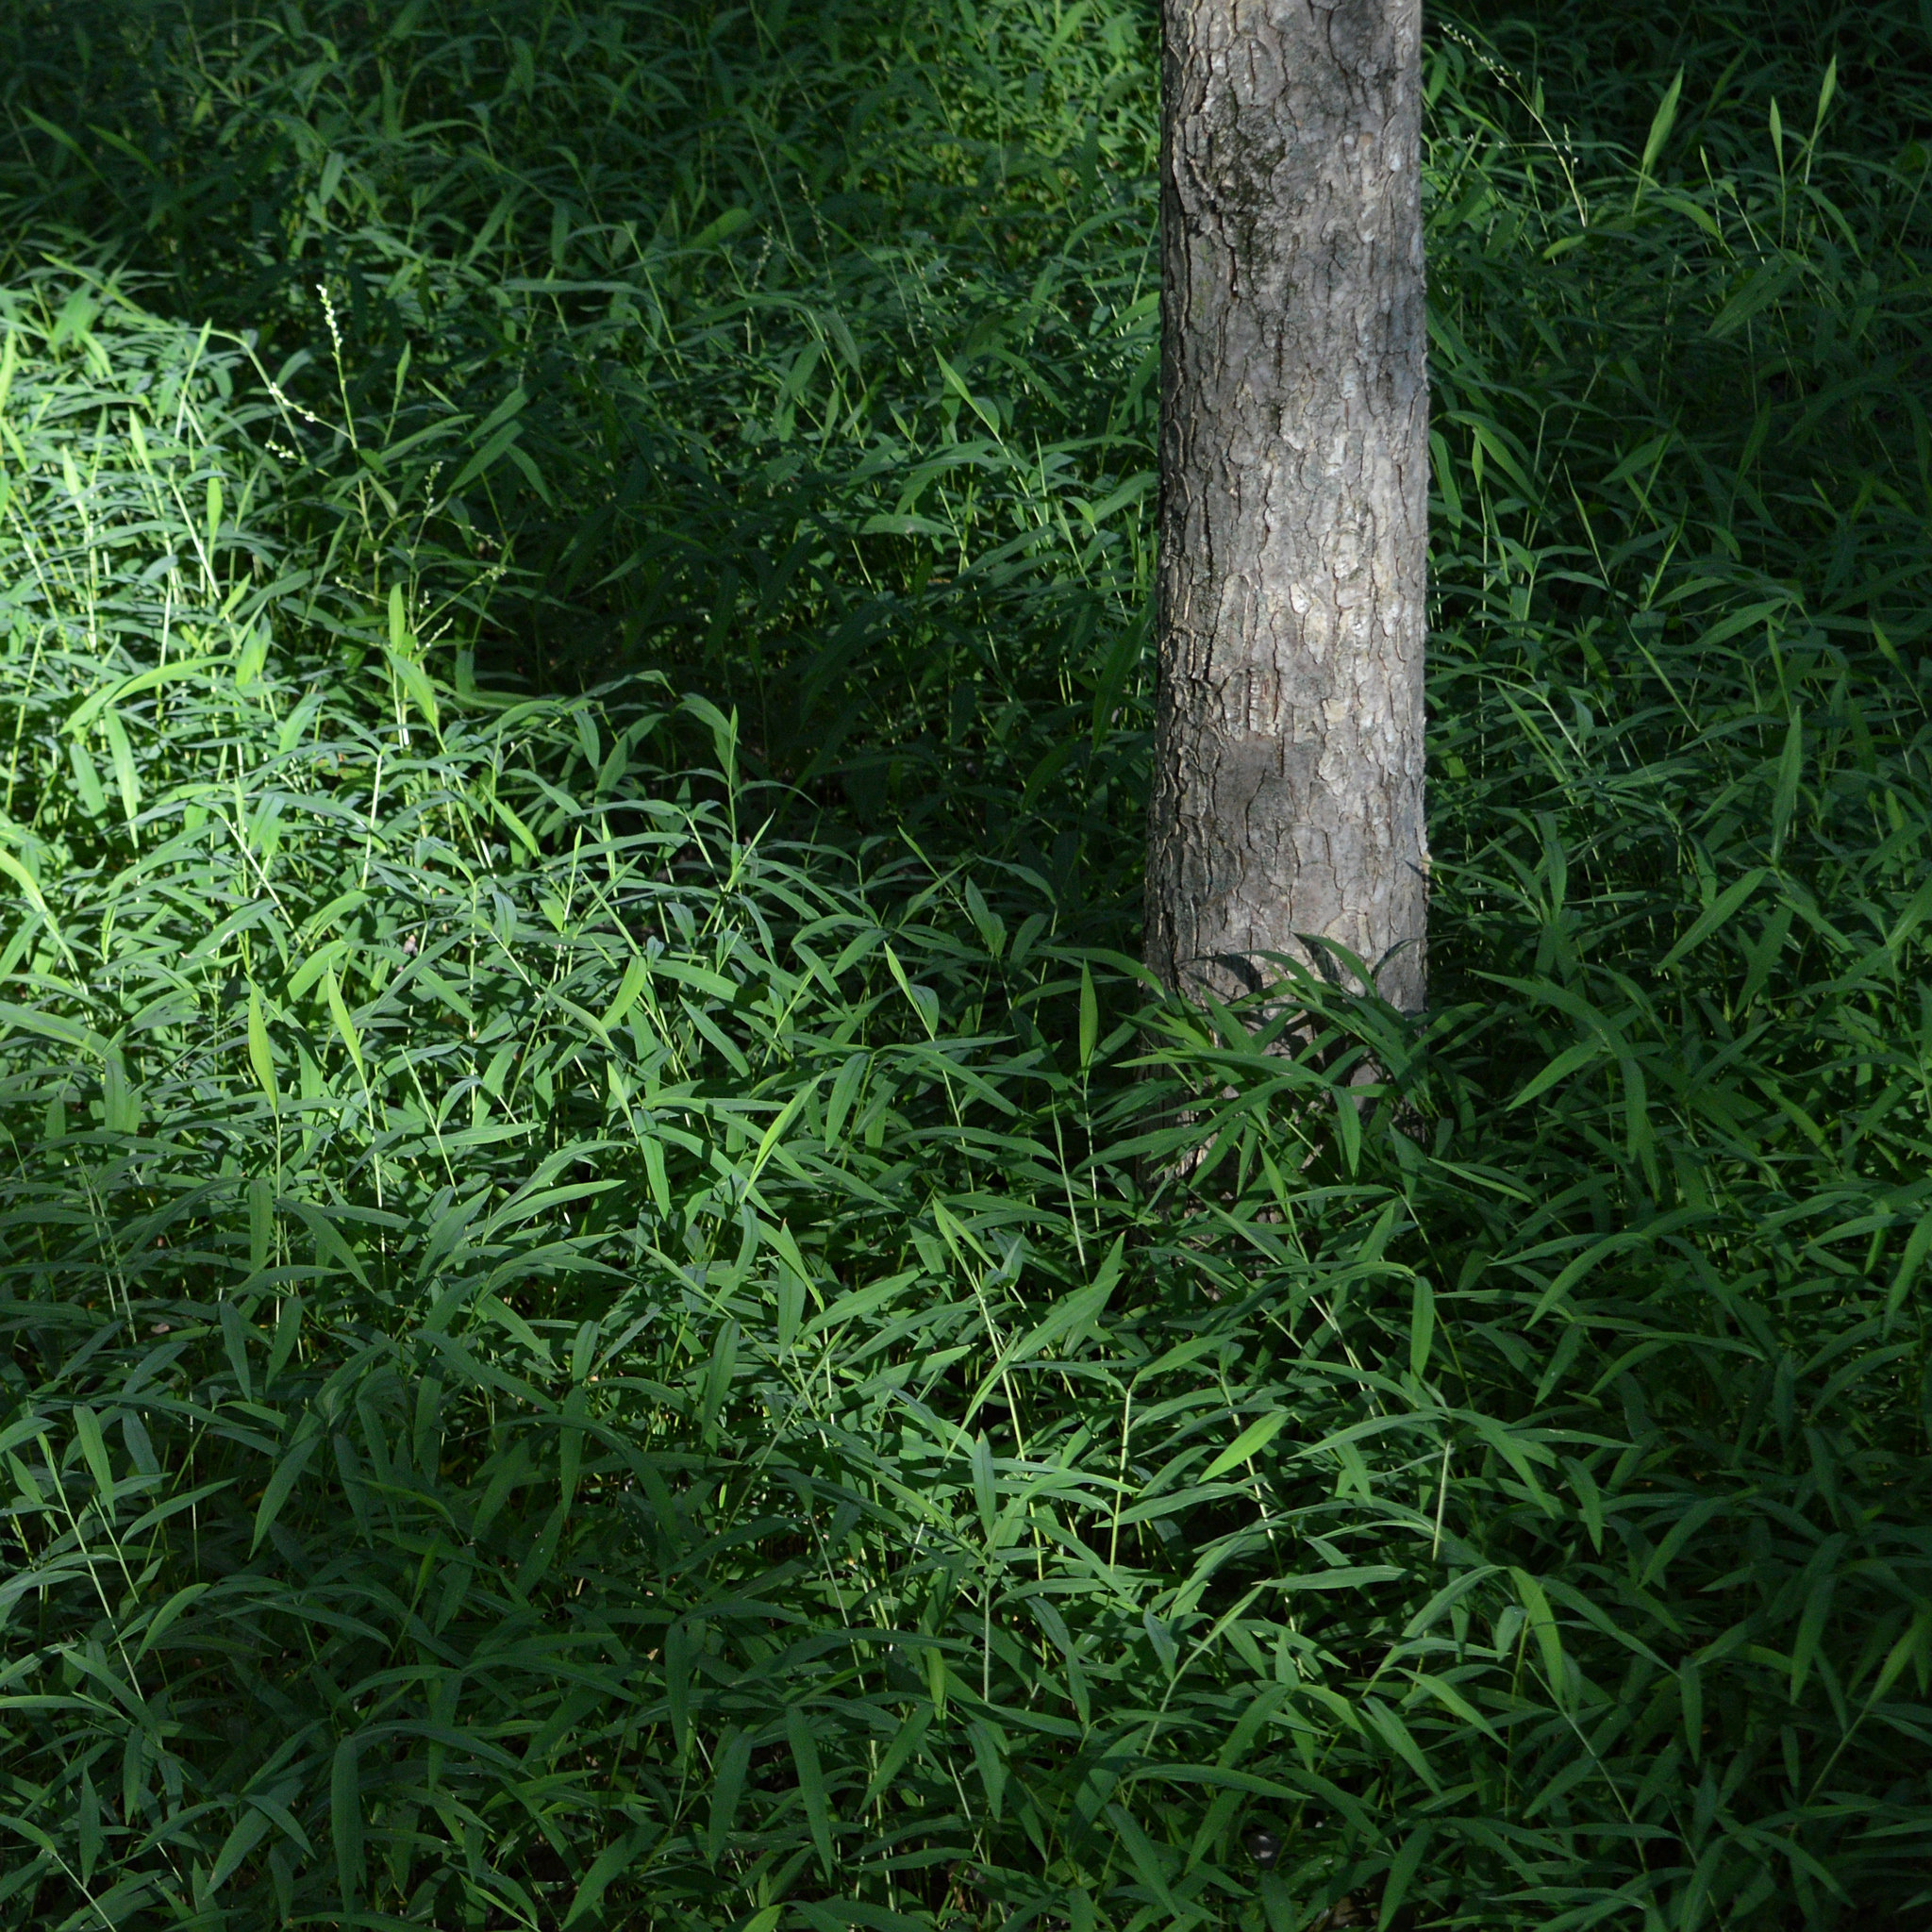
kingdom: Plantae
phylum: Tracheophyta
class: Liliopsida
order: Poales
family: Poaceae
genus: Microstegium
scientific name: Microstegium vimineum
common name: Japanese stiltgrass
